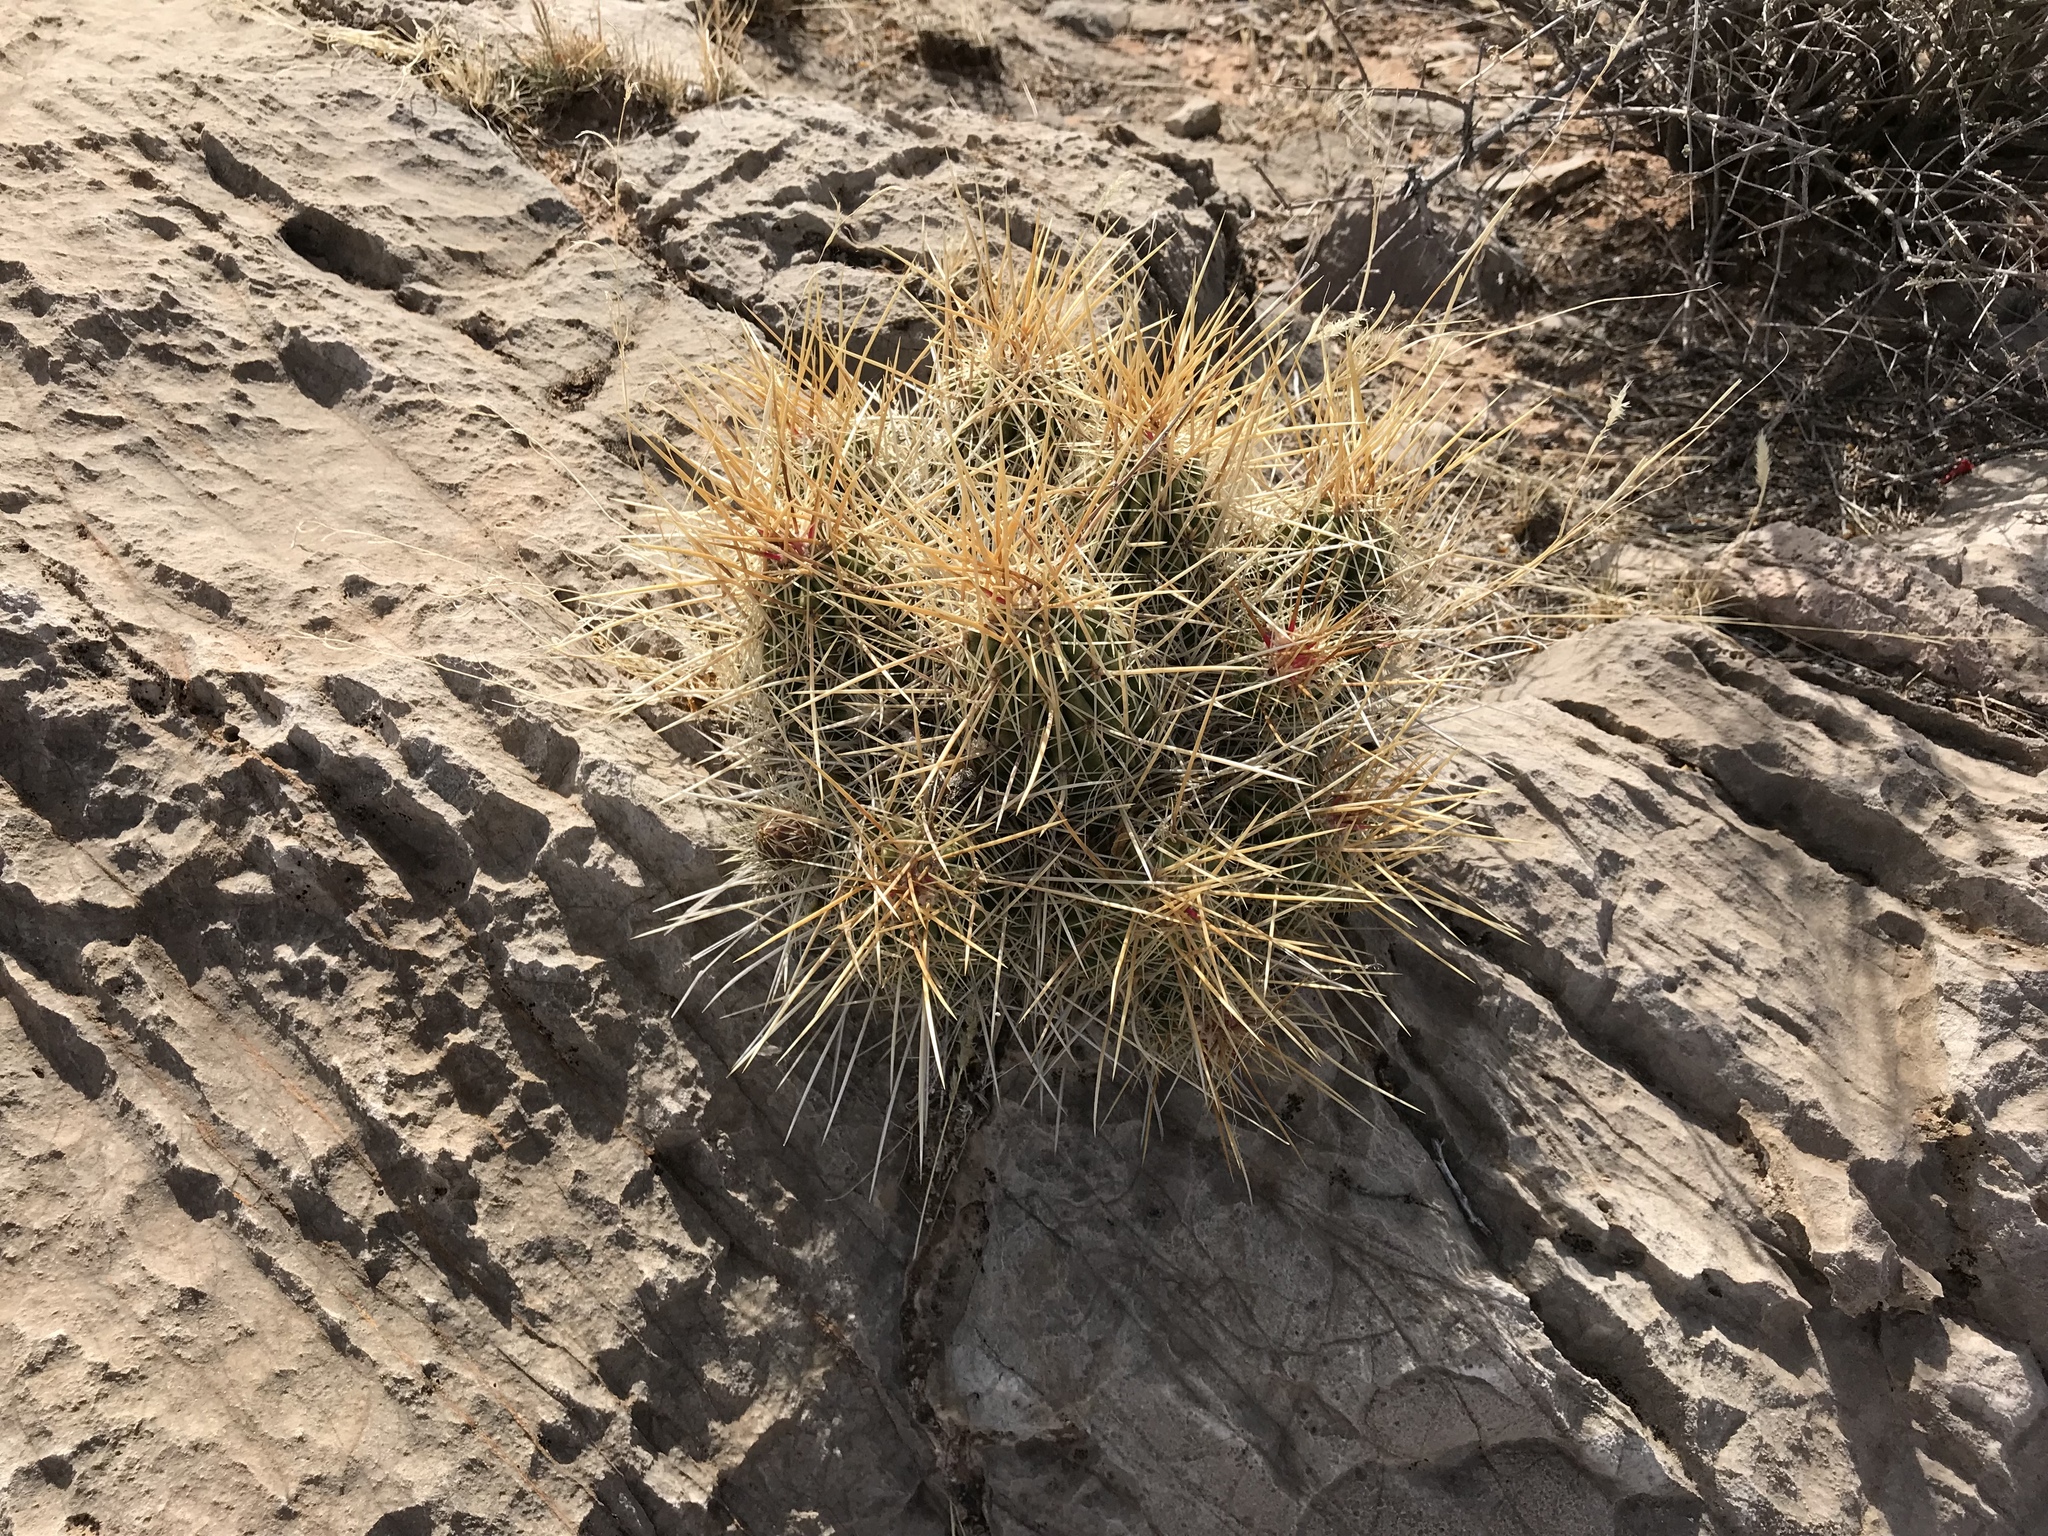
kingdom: Plantae
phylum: Tracheophyta
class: Magnoliopsida
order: Caryophyllales
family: Cactaceae
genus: Echinocereus
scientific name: Echinocereus stramineus
